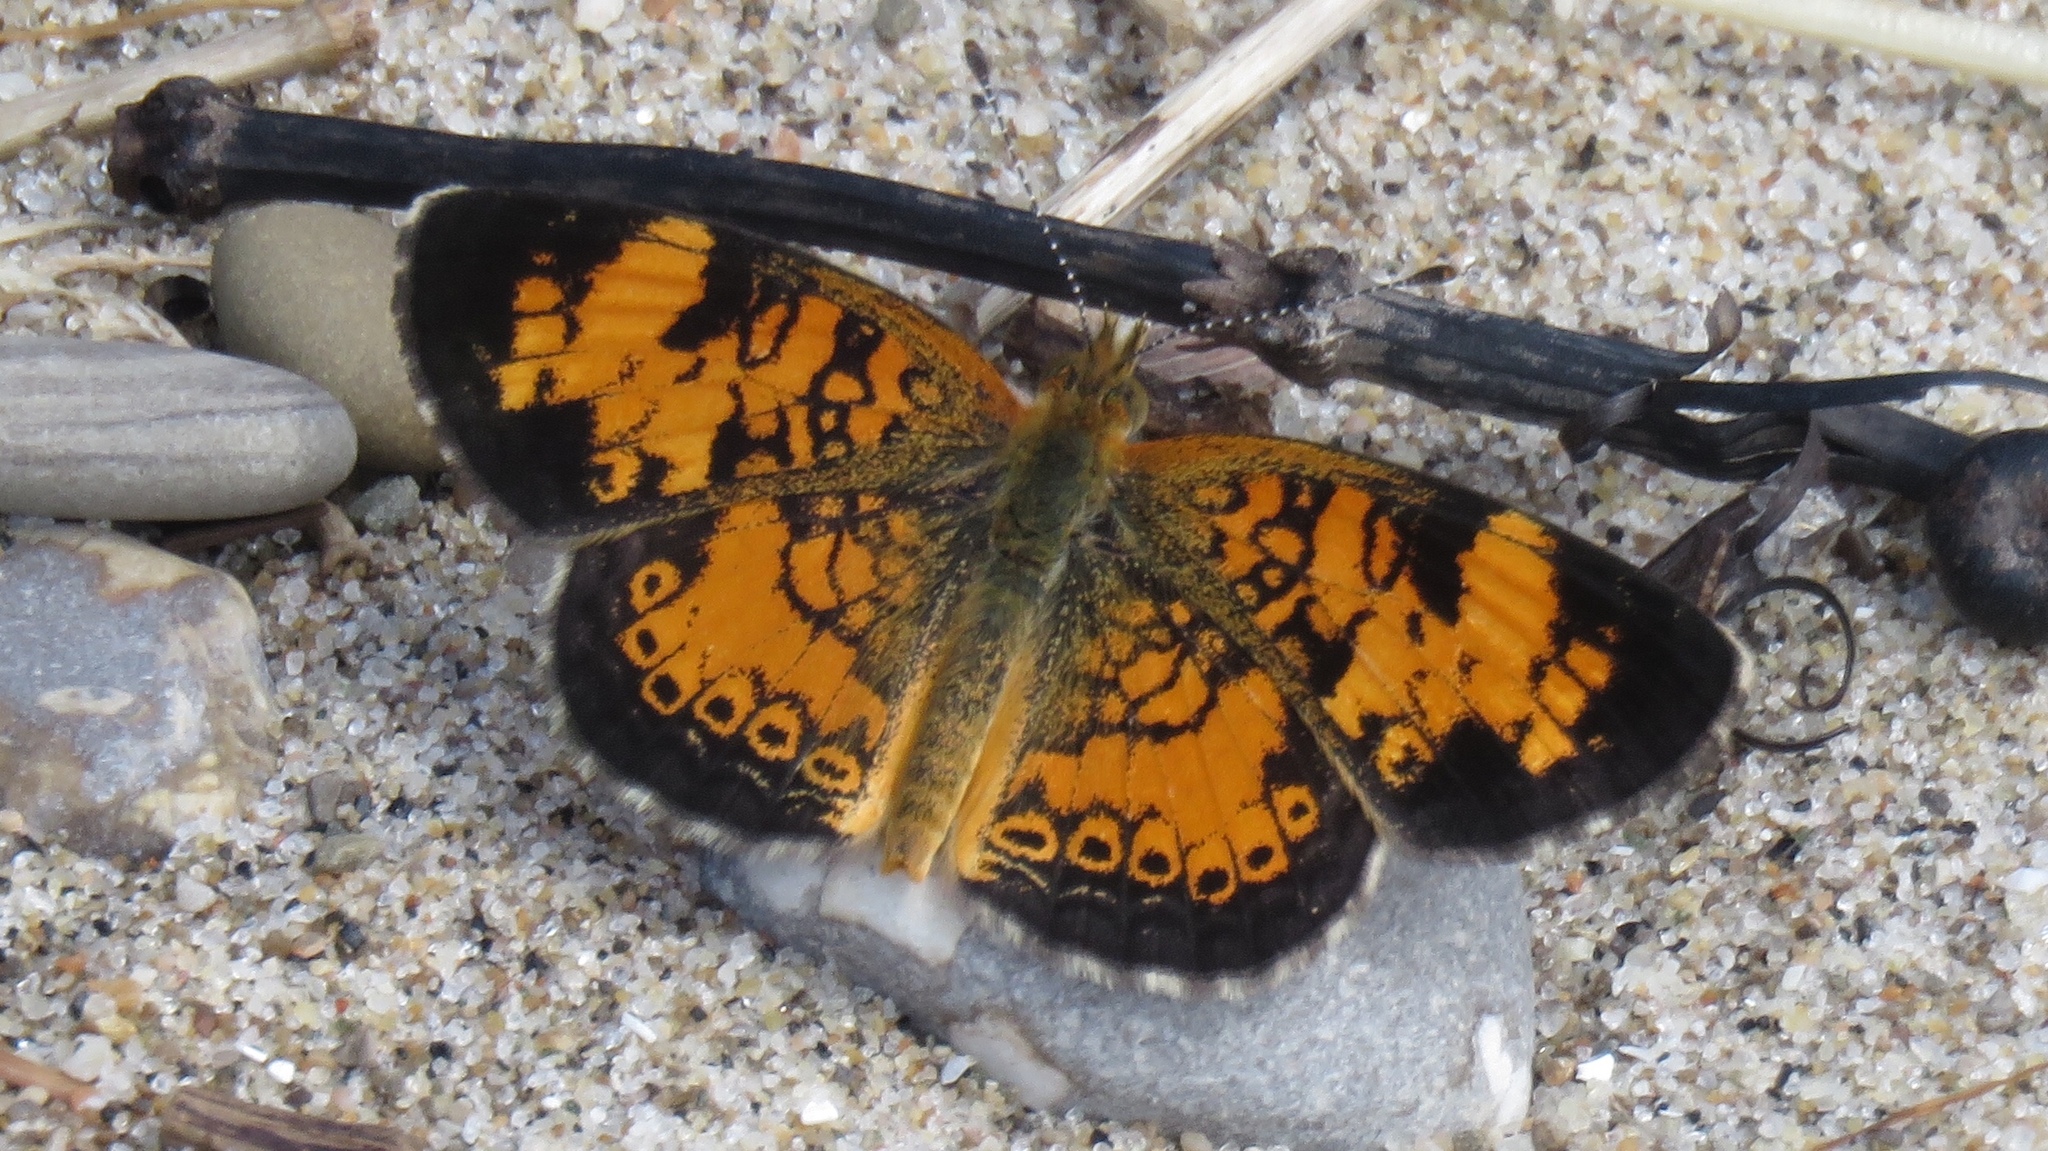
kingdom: Animalia
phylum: Arthropoda
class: Insecta
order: Lepidoptera
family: Nymphalidae
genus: Phyciodes
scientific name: Phyciodes tharos
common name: Pearl crescent
